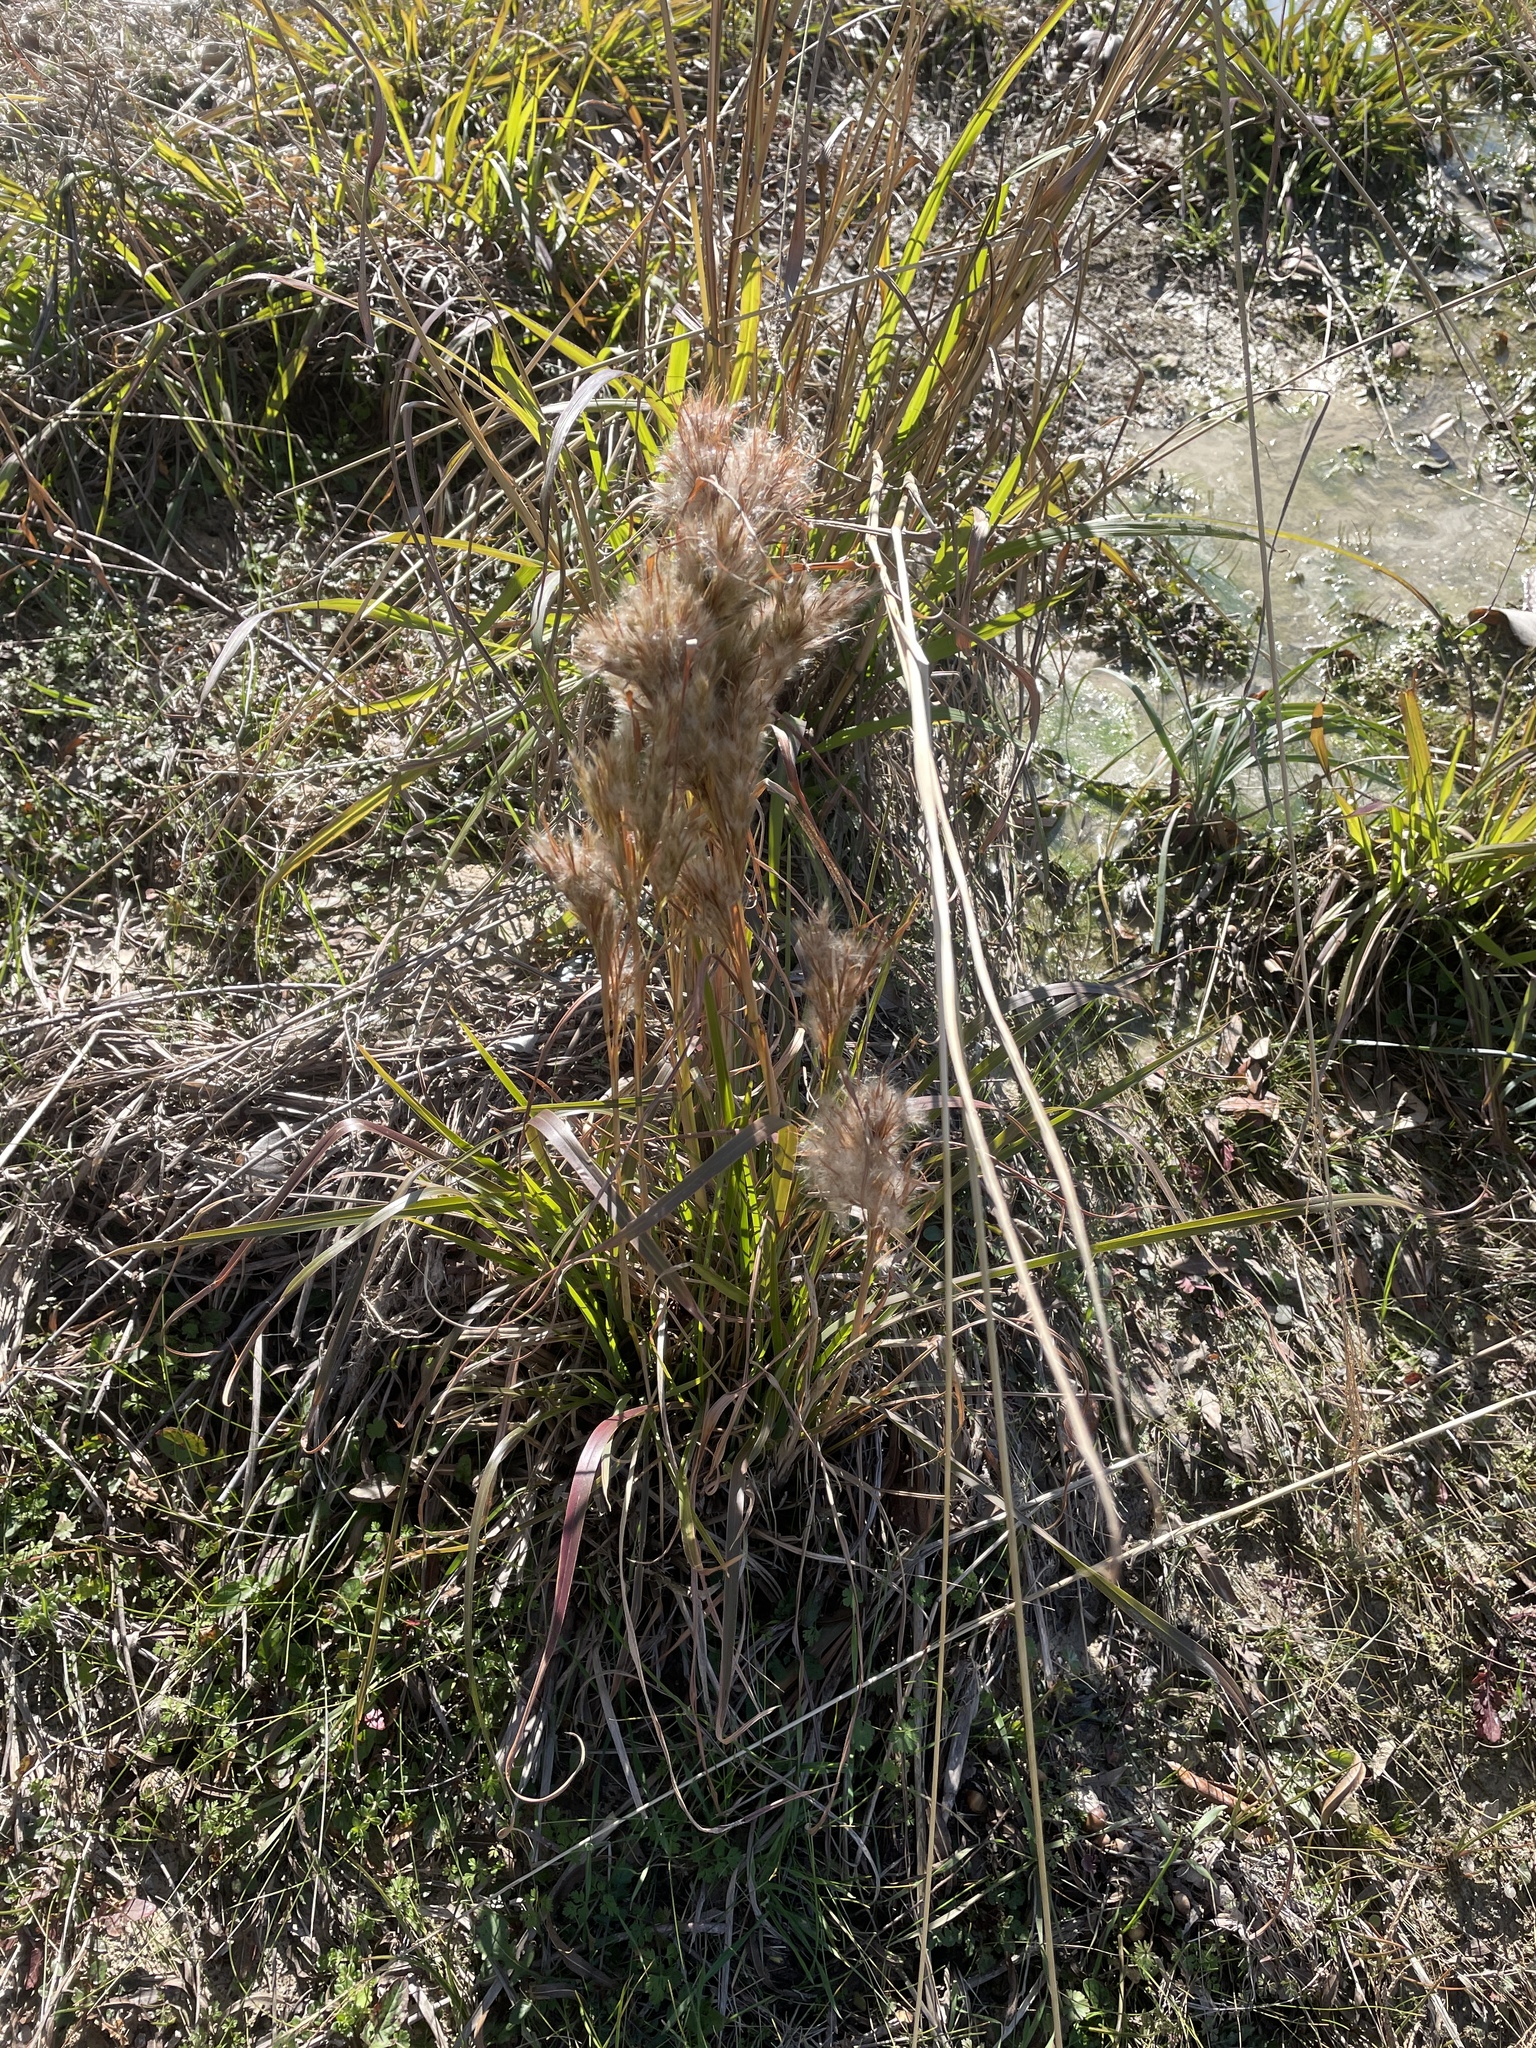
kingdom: Plantae
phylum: Tracheophyta
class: Liliopsida
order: Poales
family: Poaceae
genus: Andropogon
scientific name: Andropogon tenuispatheus
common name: Bushy bluestem
